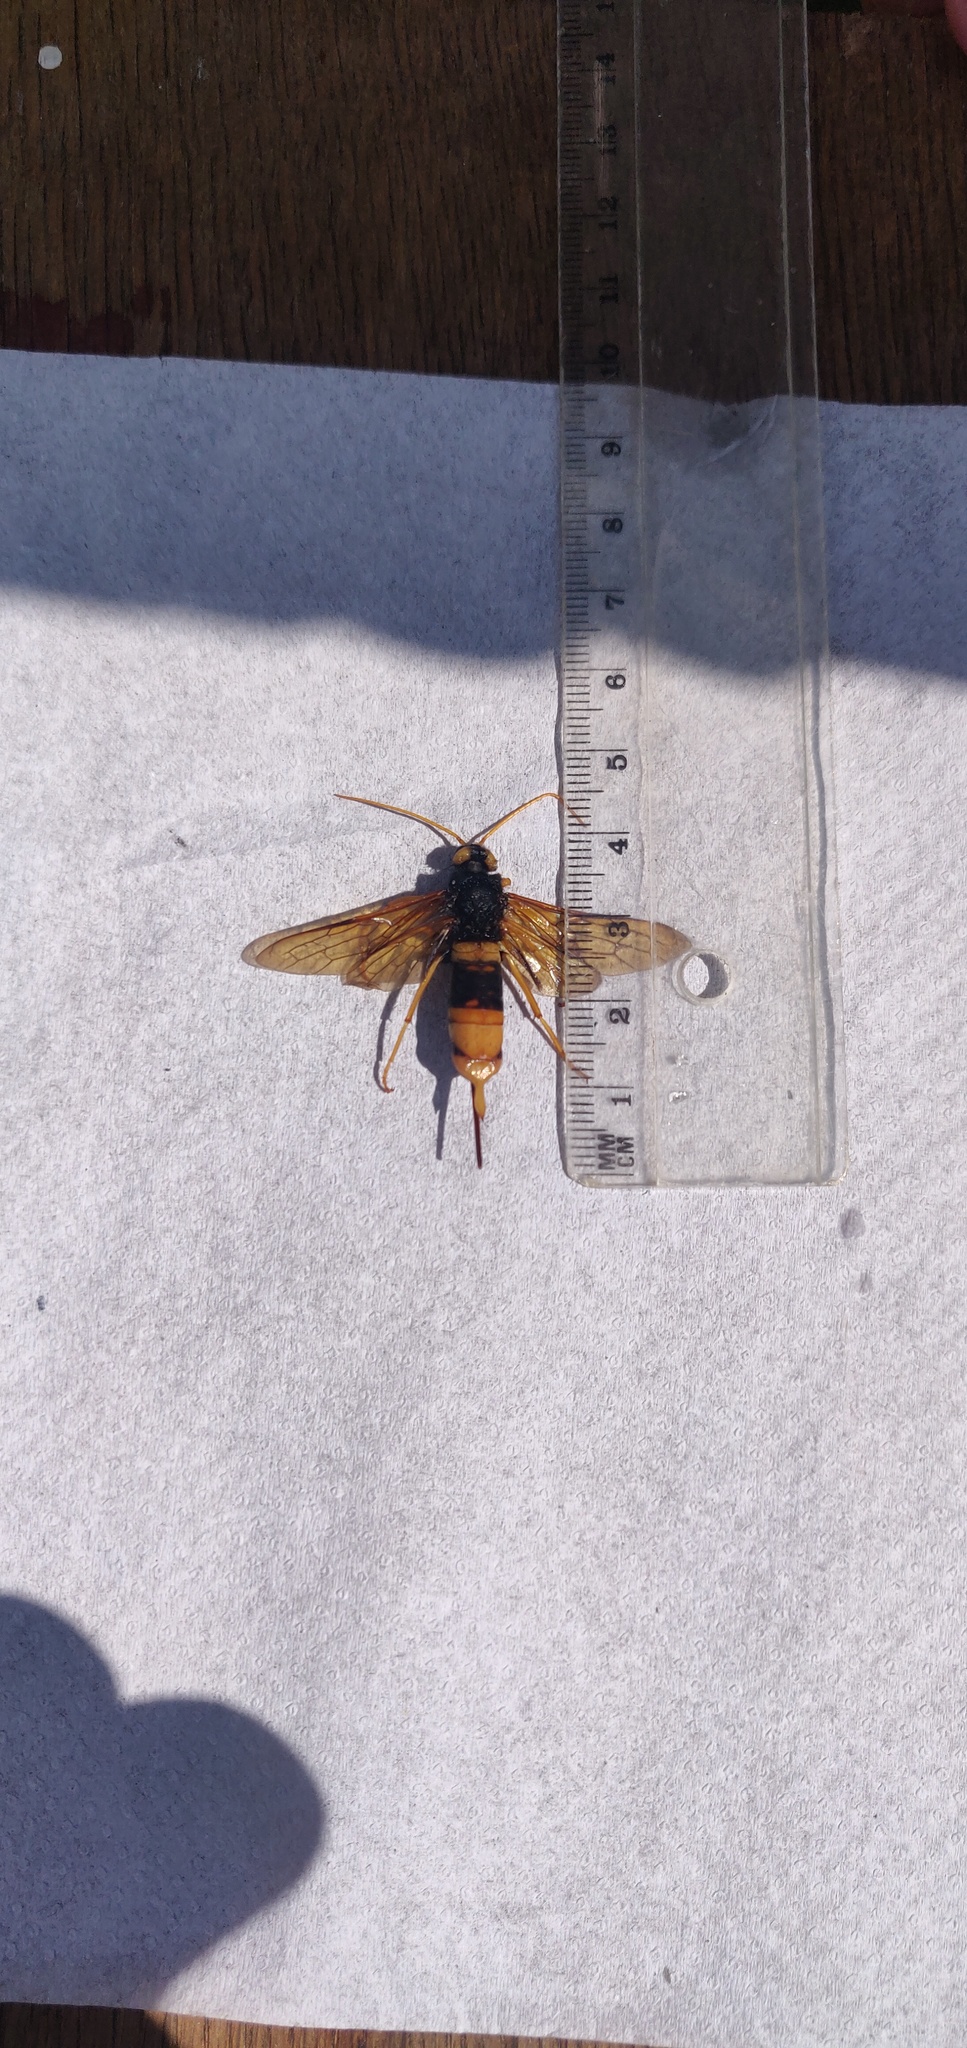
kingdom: Animalia
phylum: Arthropoda
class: Insecta
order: Hymenoptera
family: Siricidae
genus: Urocerus
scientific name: Urocerus gigas
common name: Giant woodwasp
